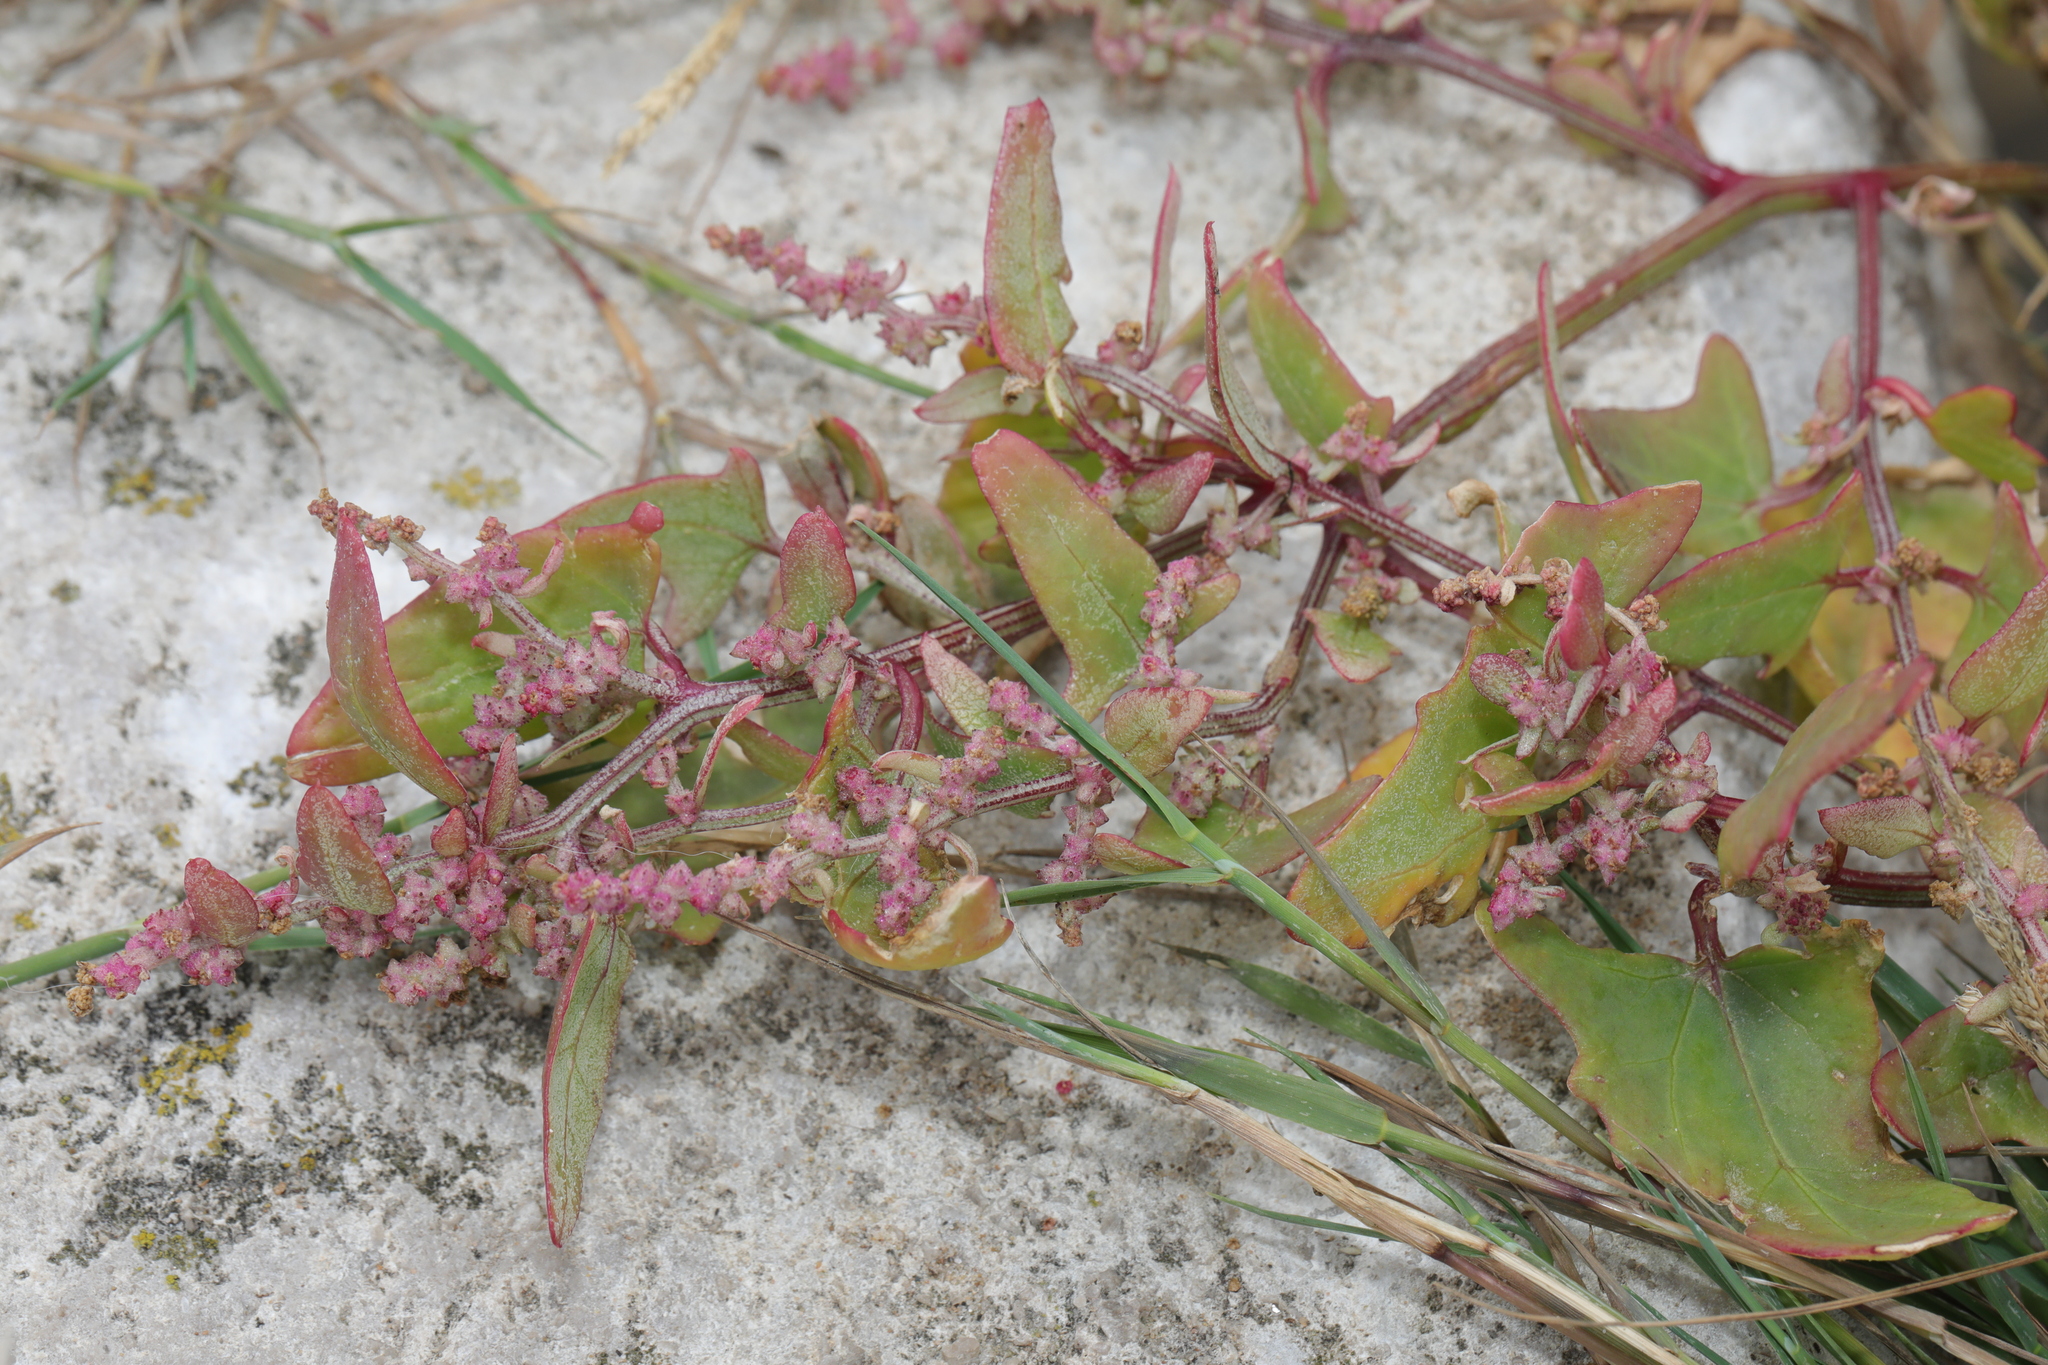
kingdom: Plantae
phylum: Tracheophyta
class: Magnoliopsida
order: Caryophyllales
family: Amaranthaceae
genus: Atriplex
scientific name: Atriplex prostrata
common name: Spear-leaved orache
